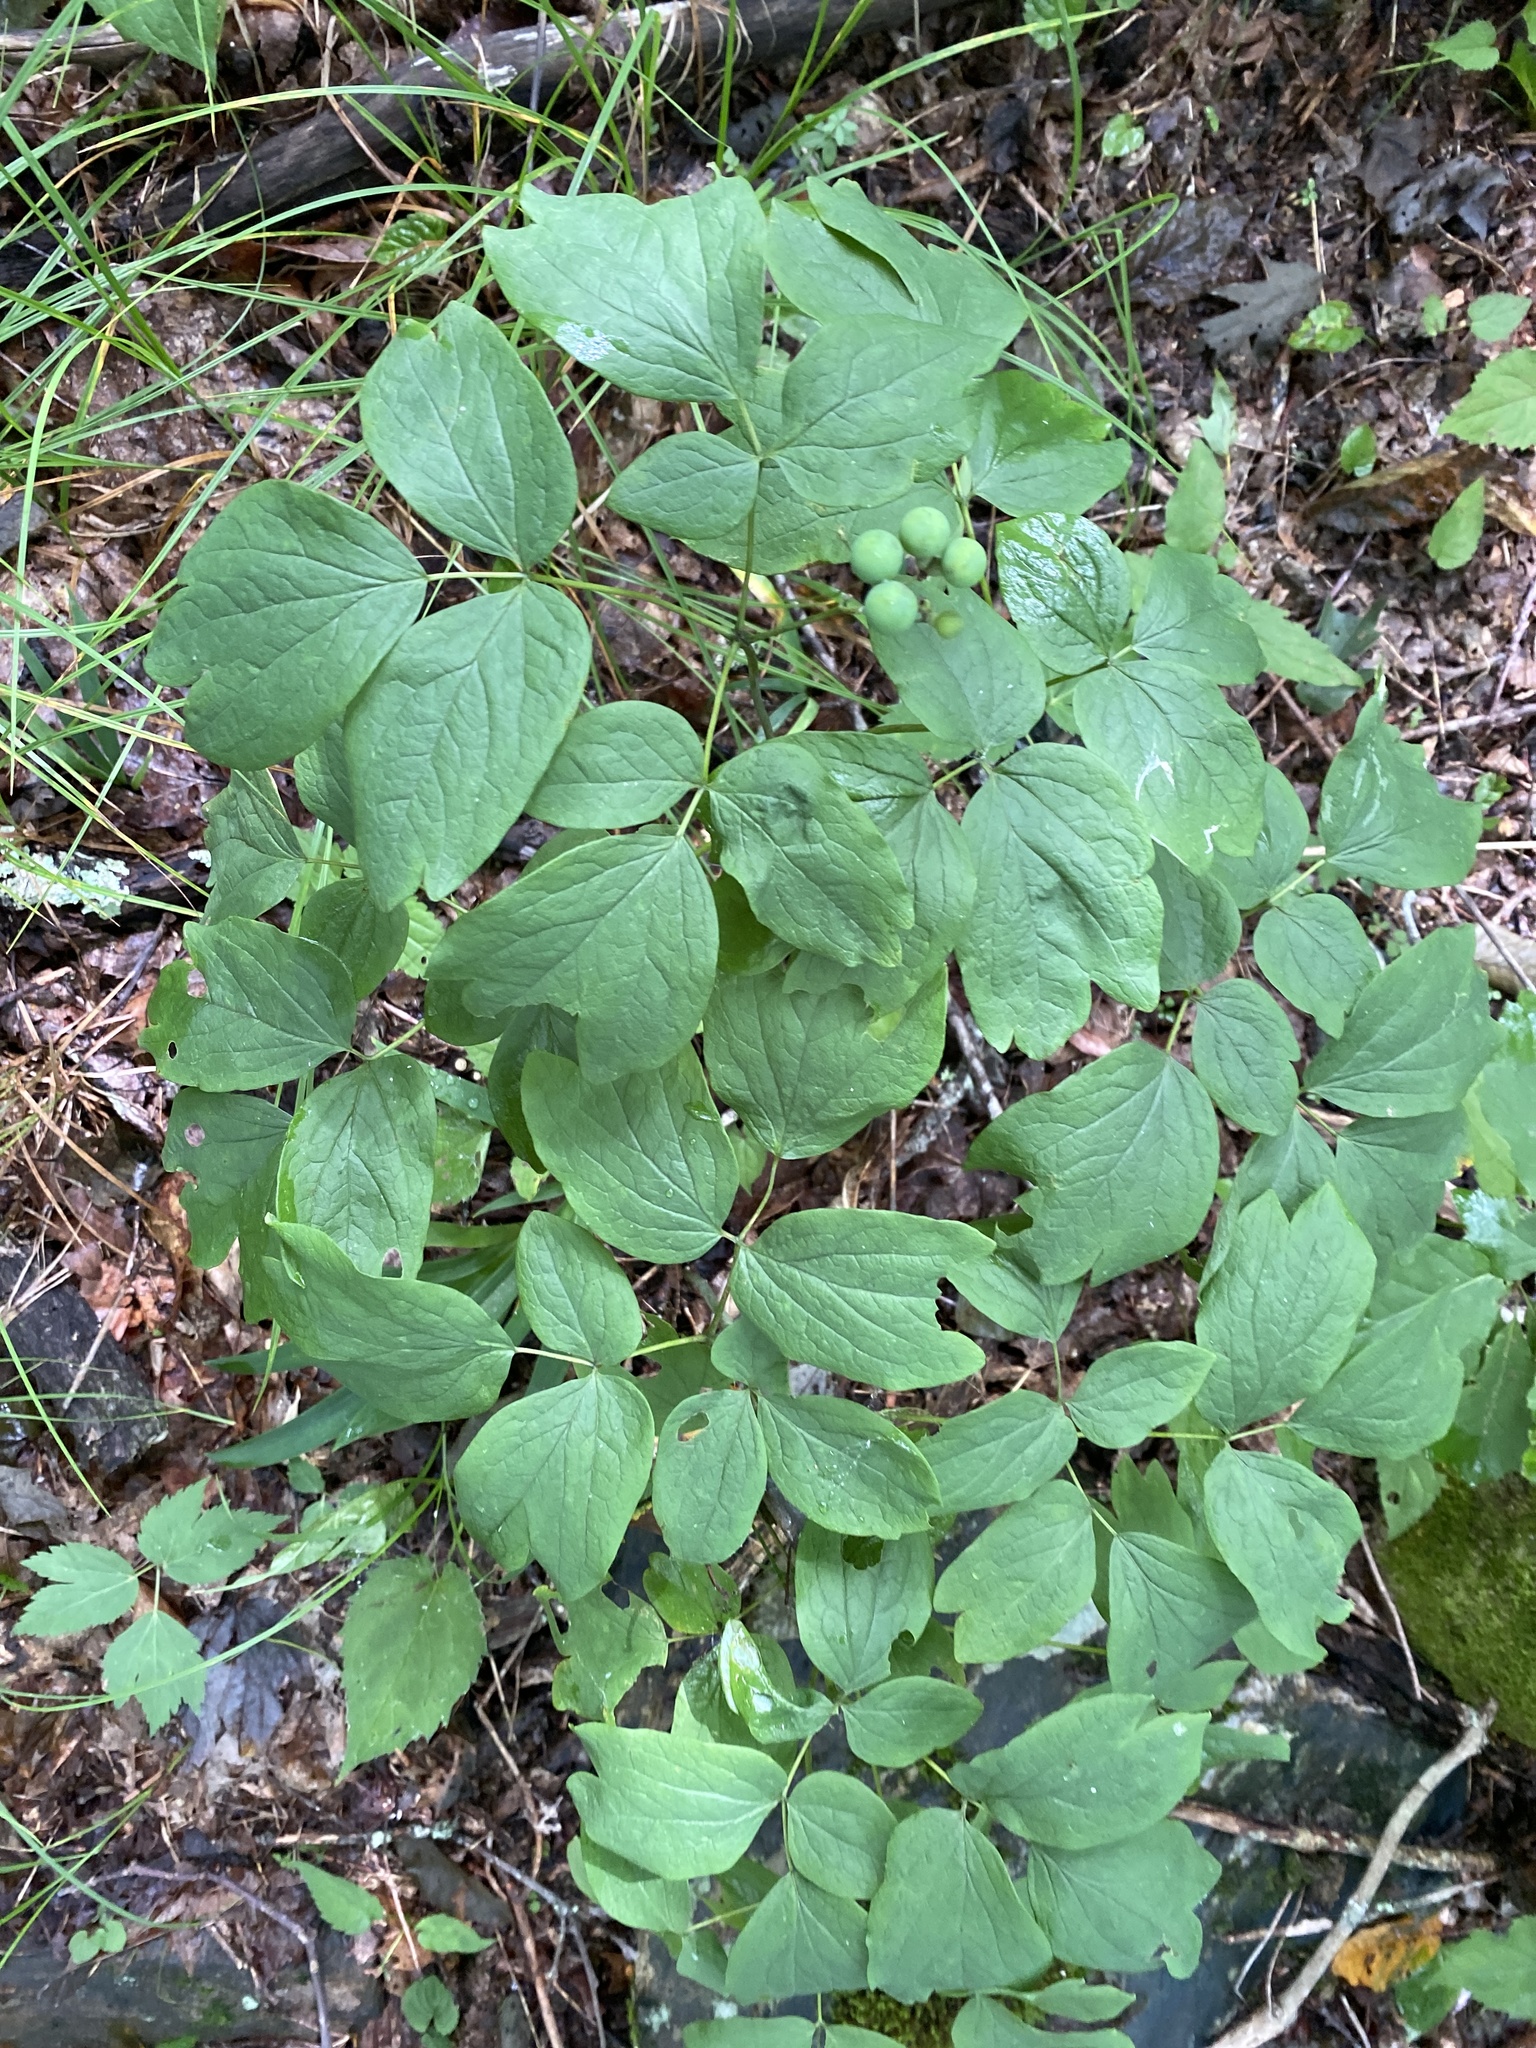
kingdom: Plantae
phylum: Tracheophyta
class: Magnoliopsida
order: Ranunculales
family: Berberidaceae
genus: Caulophyllum
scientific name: Caulophyllum thalictroides
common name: Blue cohosh
